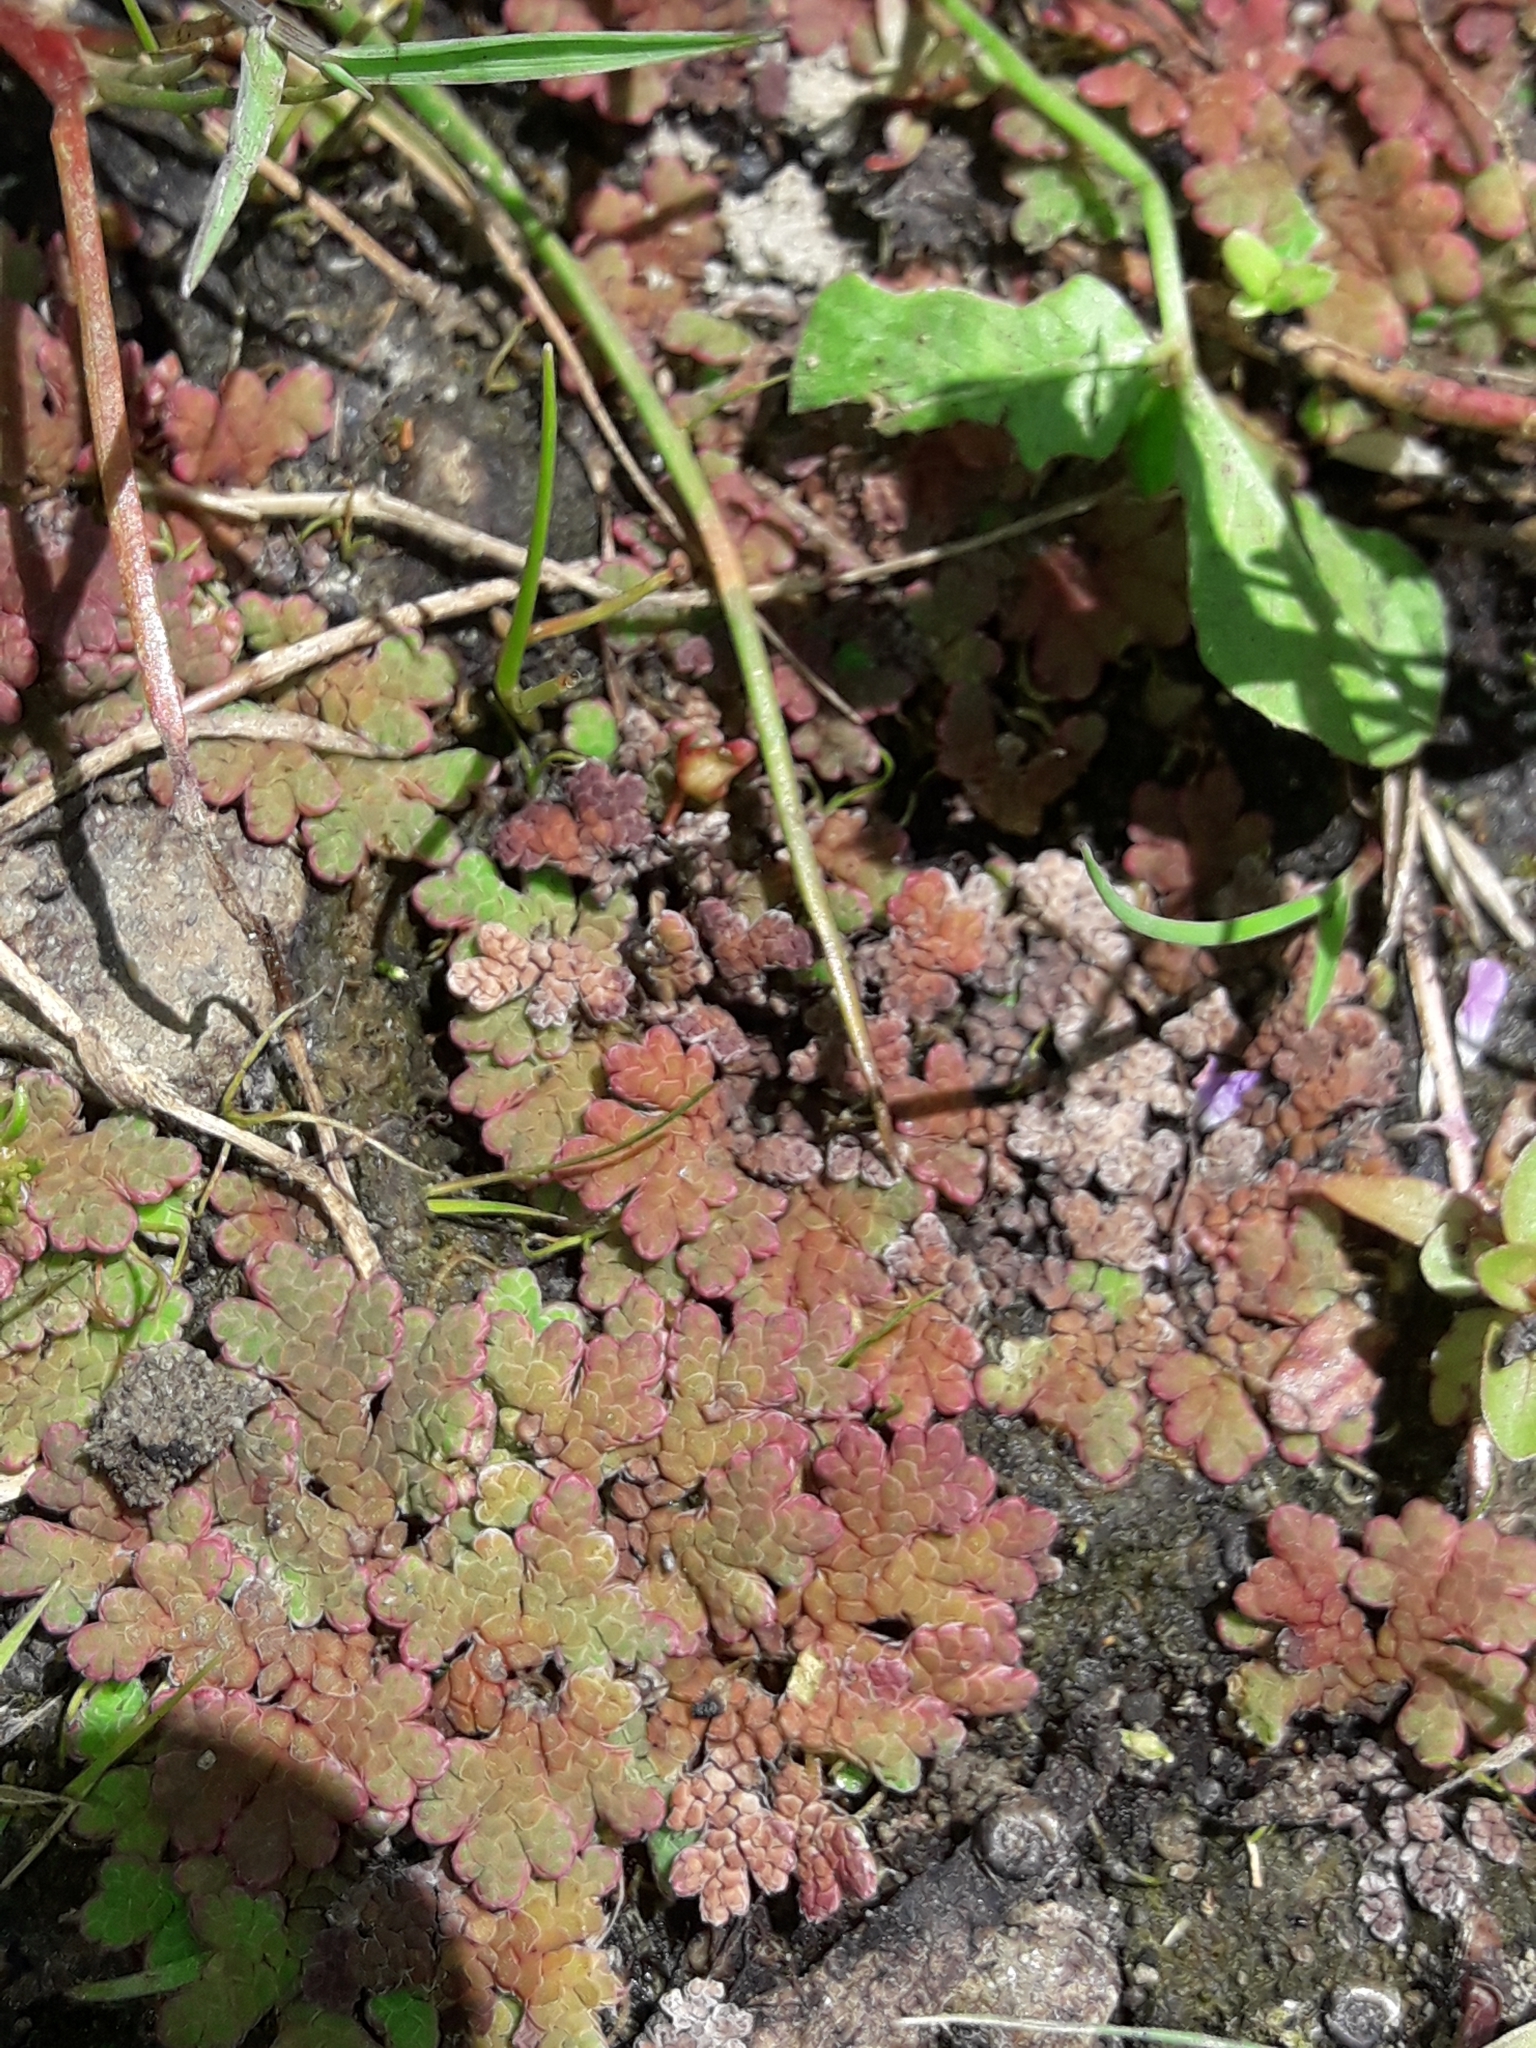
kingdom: Plantae
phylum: Tracheophyta
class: Polypodiopsida
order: Salviniales
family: Salviniaceae
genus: Azolla
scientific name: Azolla rubra
